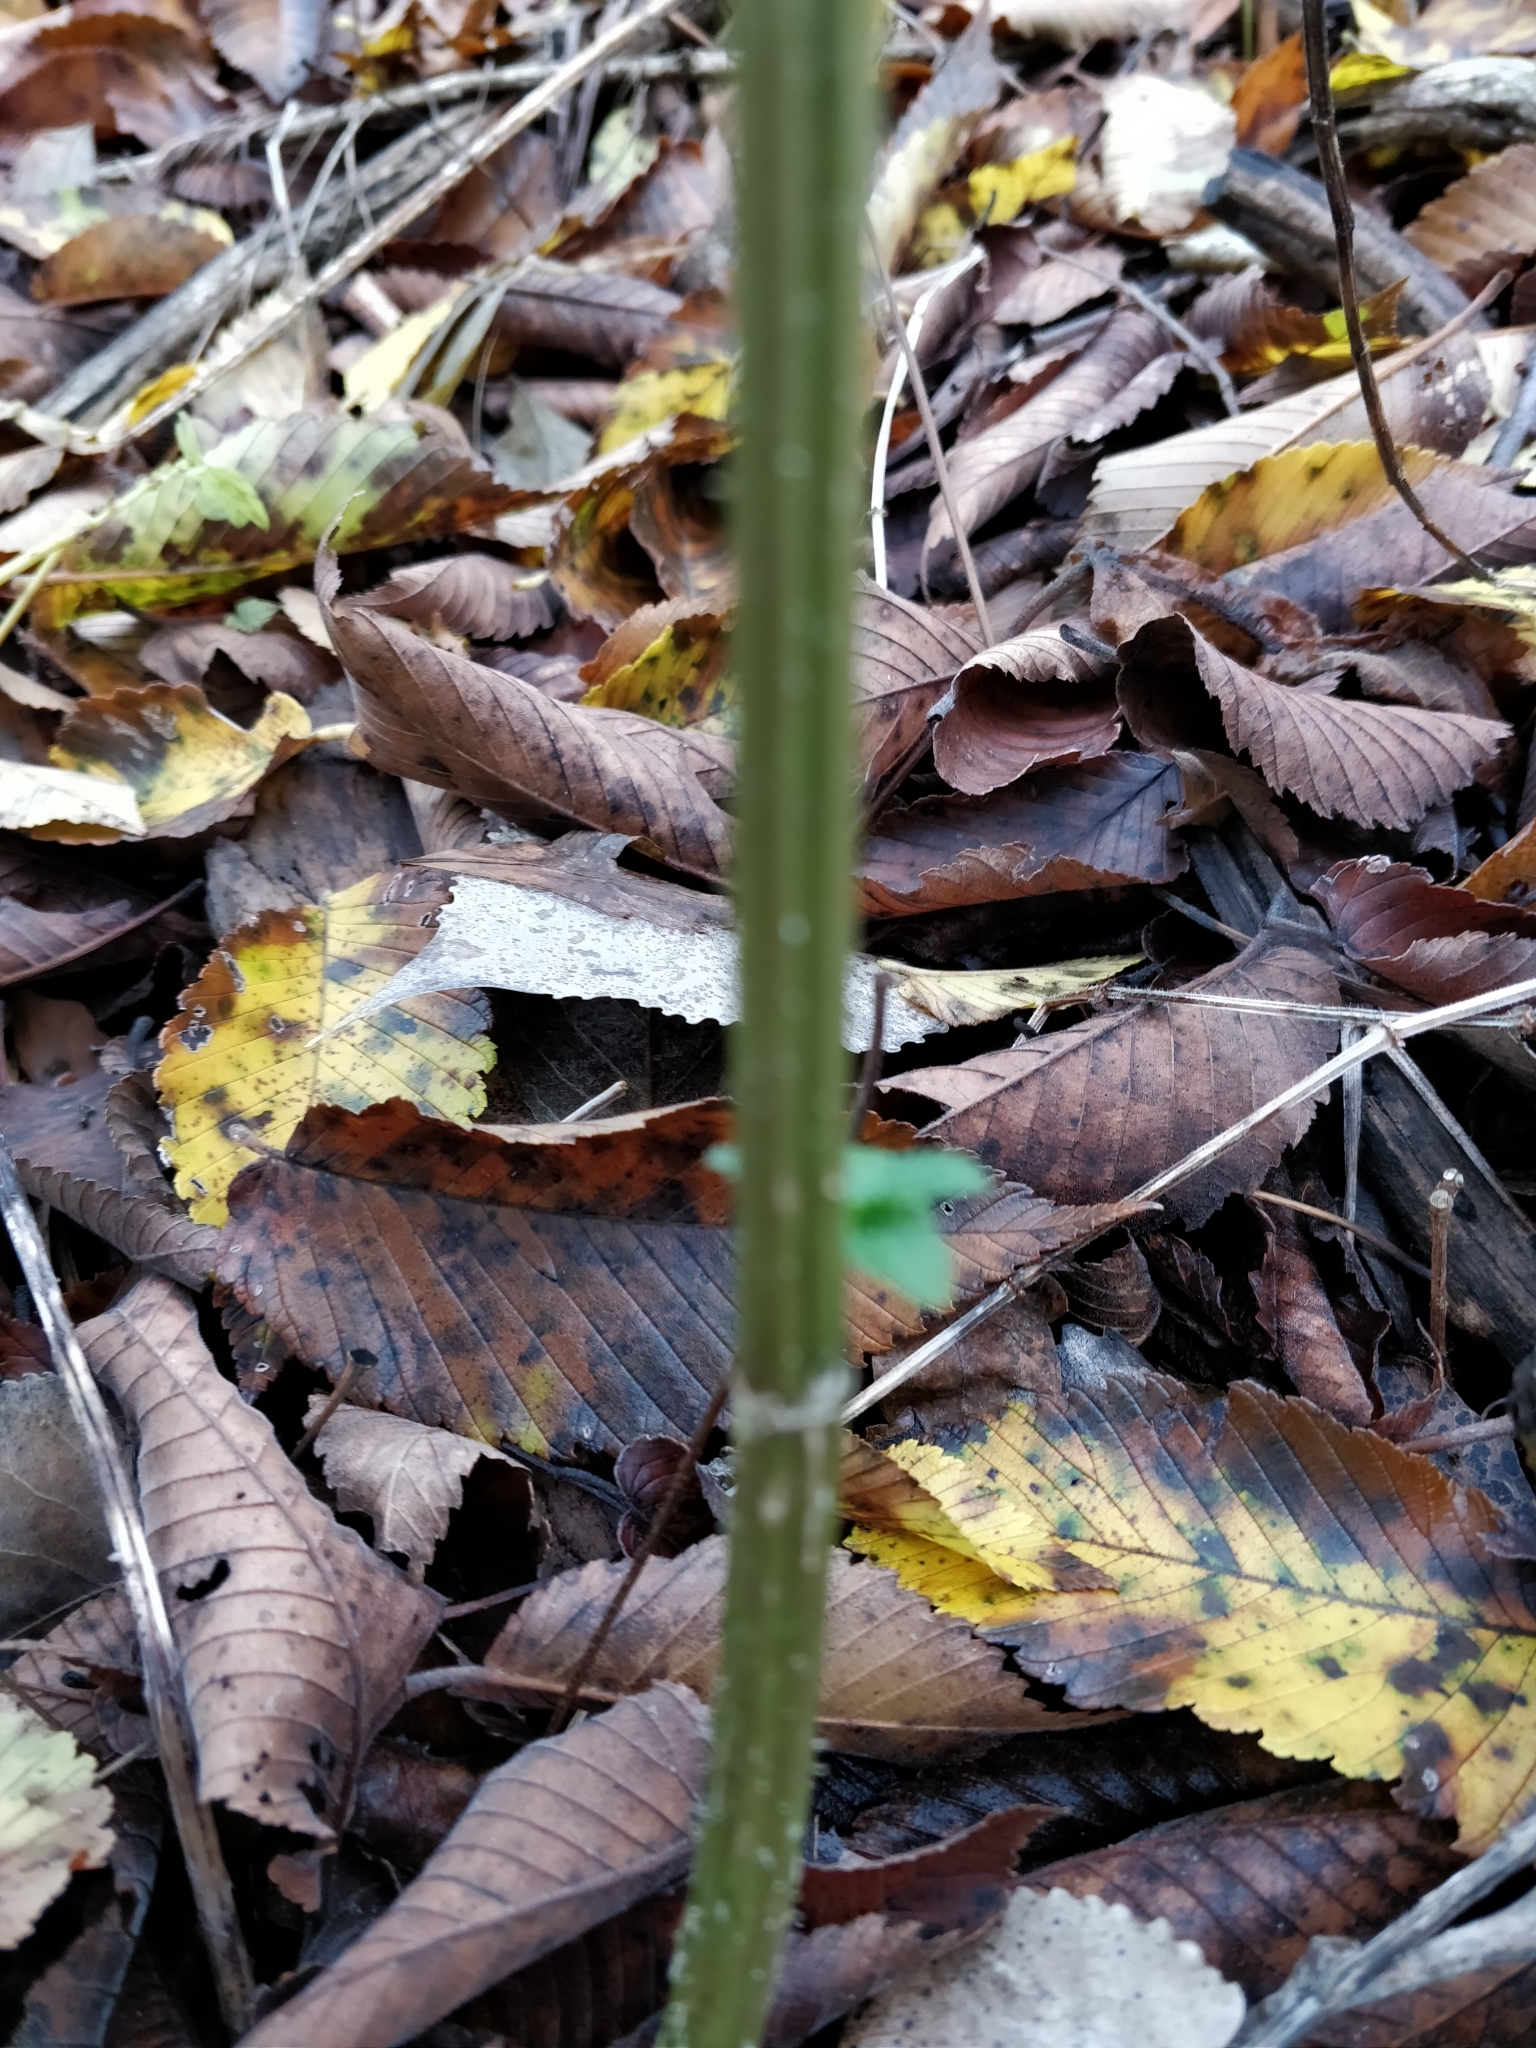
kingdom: Plantae
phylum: Tracheophyta
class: Magnoliopsida
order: Rosales
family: Urticaceae
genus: Urtica
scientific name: Urtica dioica
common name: Common nettle
